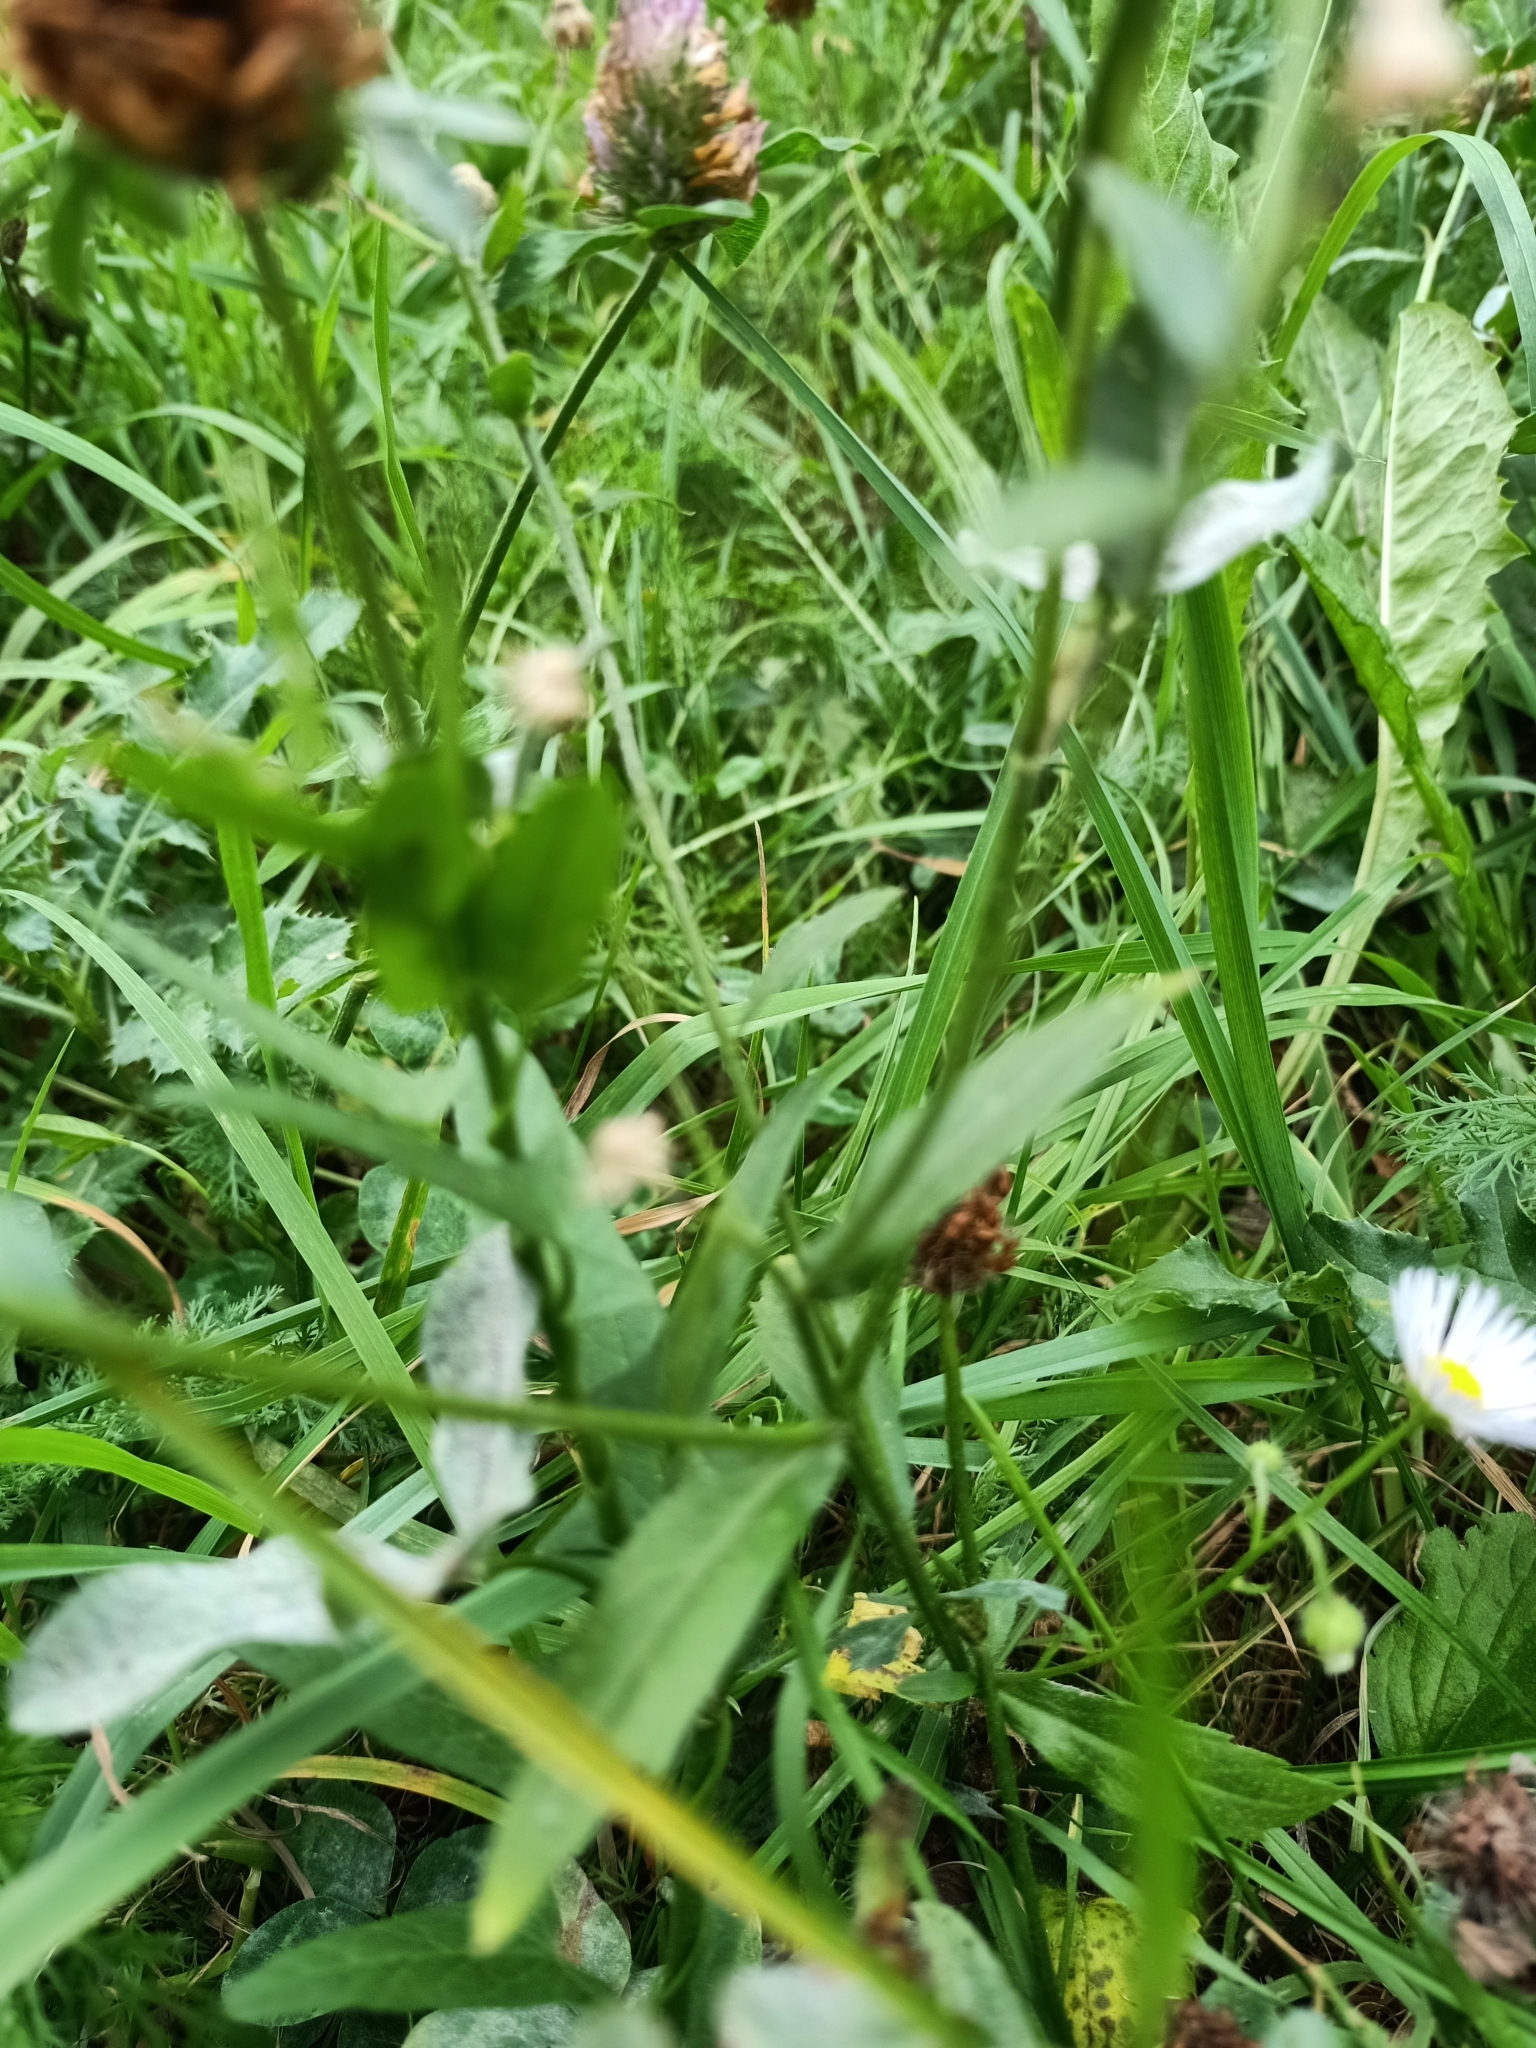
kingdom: Plantae
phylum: Tracheophyta
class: Magnoliopsida
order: Asterales
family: Asteraceae
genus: Erigeron
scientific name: Erigeron annuus
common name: Tall fleabane
